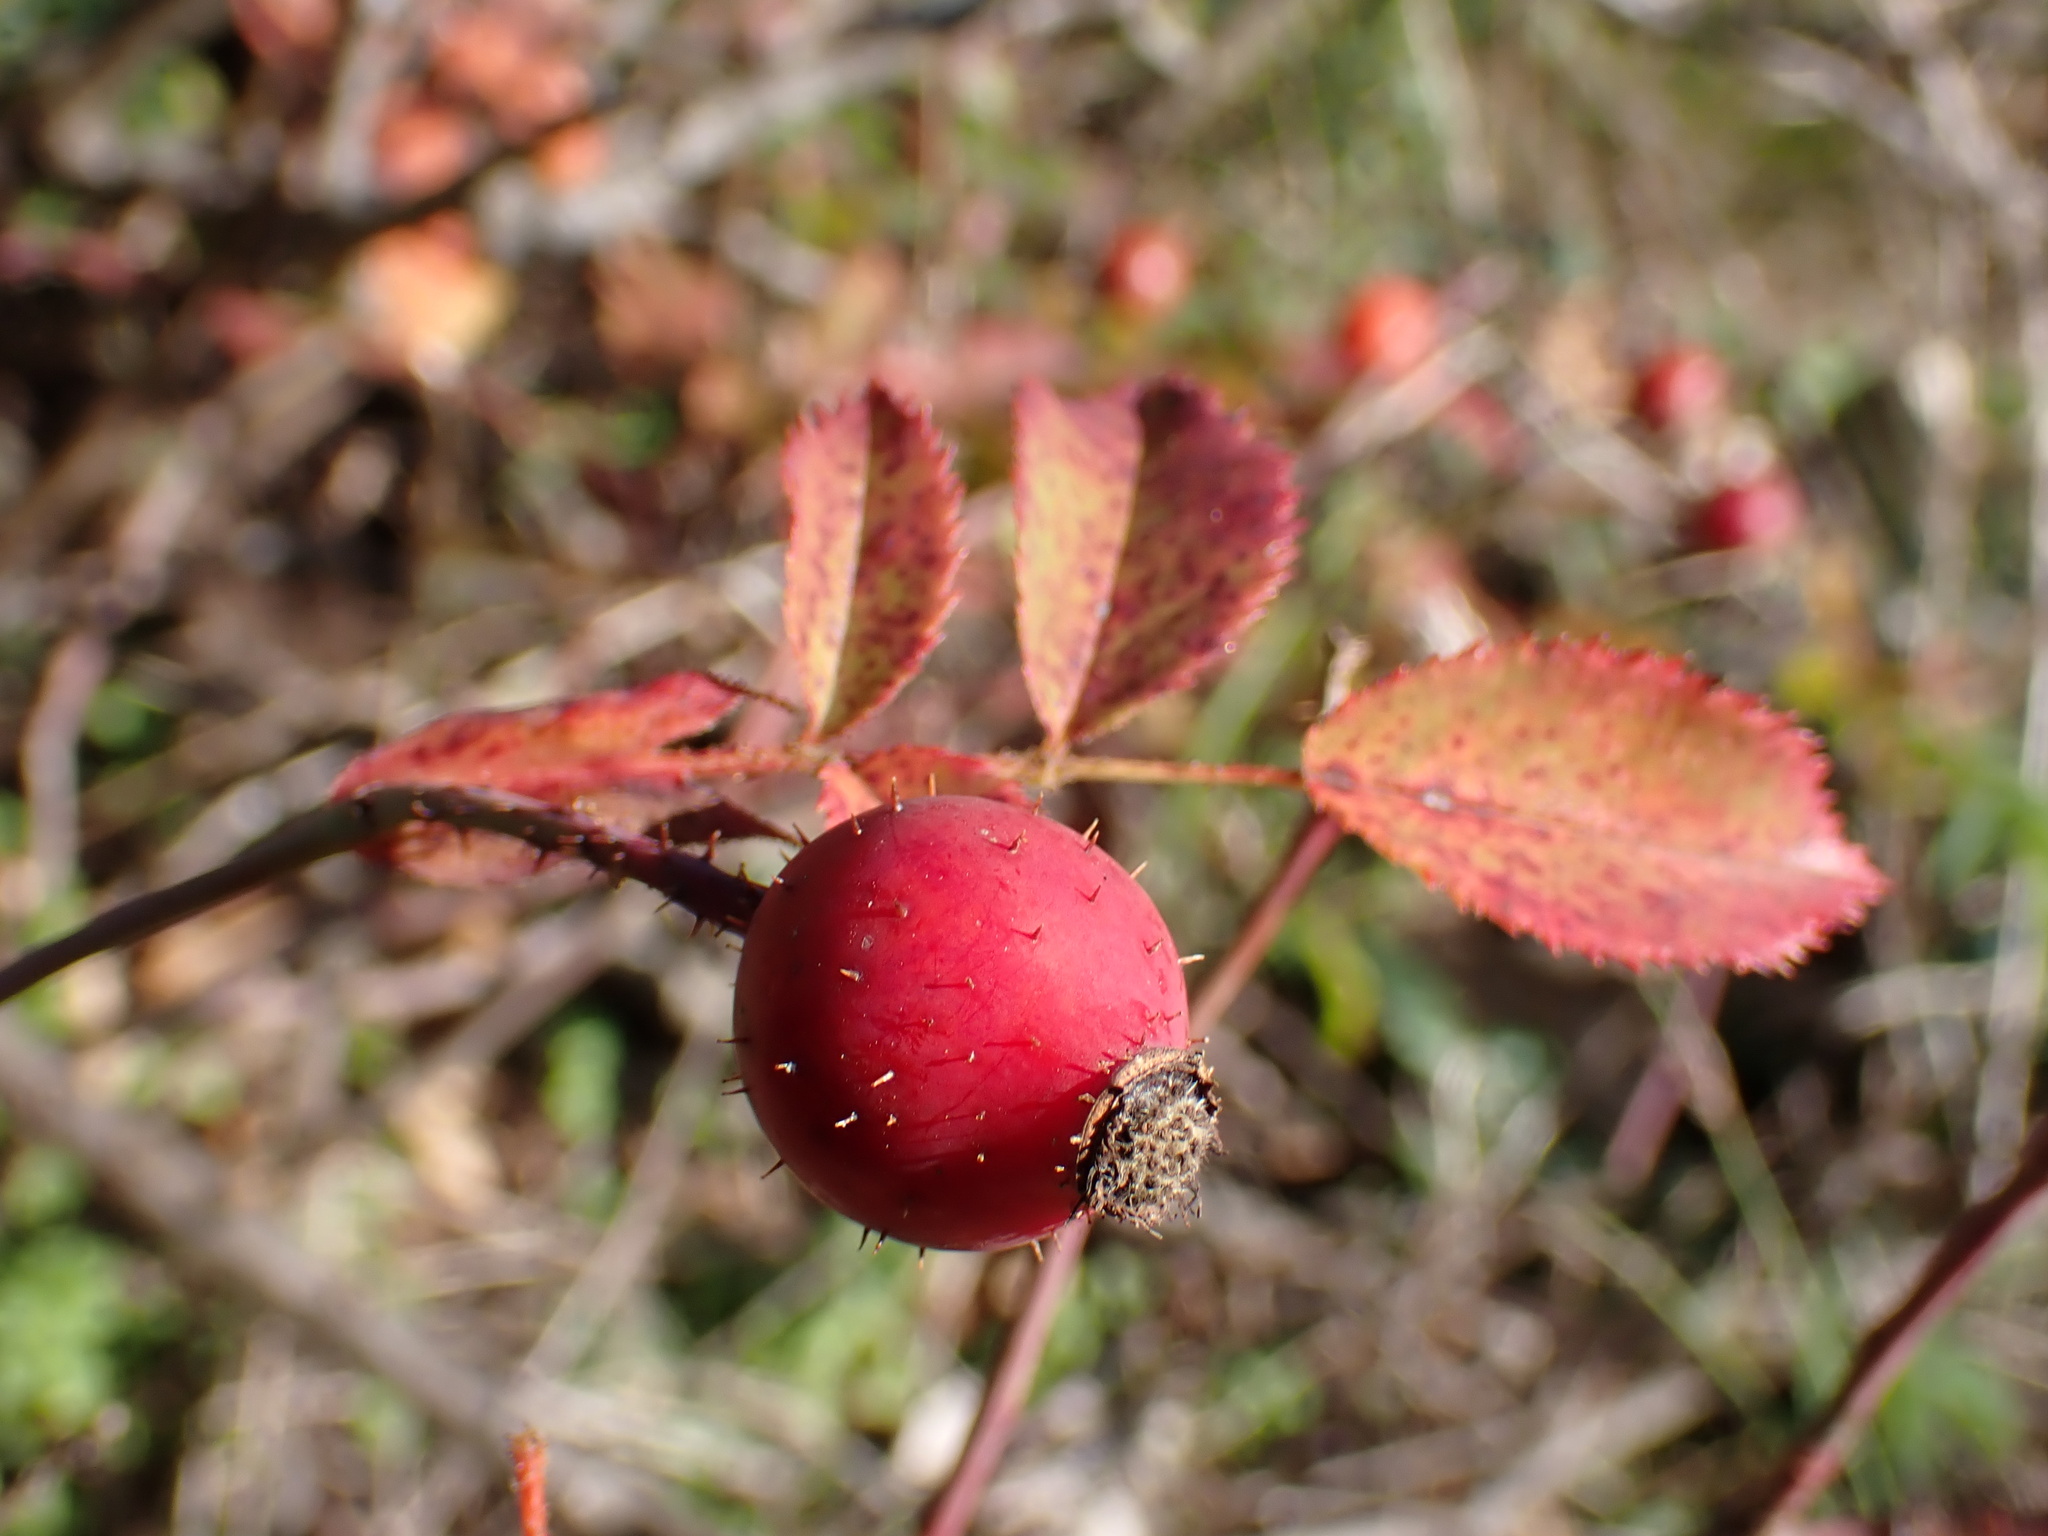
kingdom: Plantae
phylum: Tracheophyta
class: Magnoliopsida
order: Rosales
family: Rosaceae
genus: Rosa
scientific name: Rosa marginata
